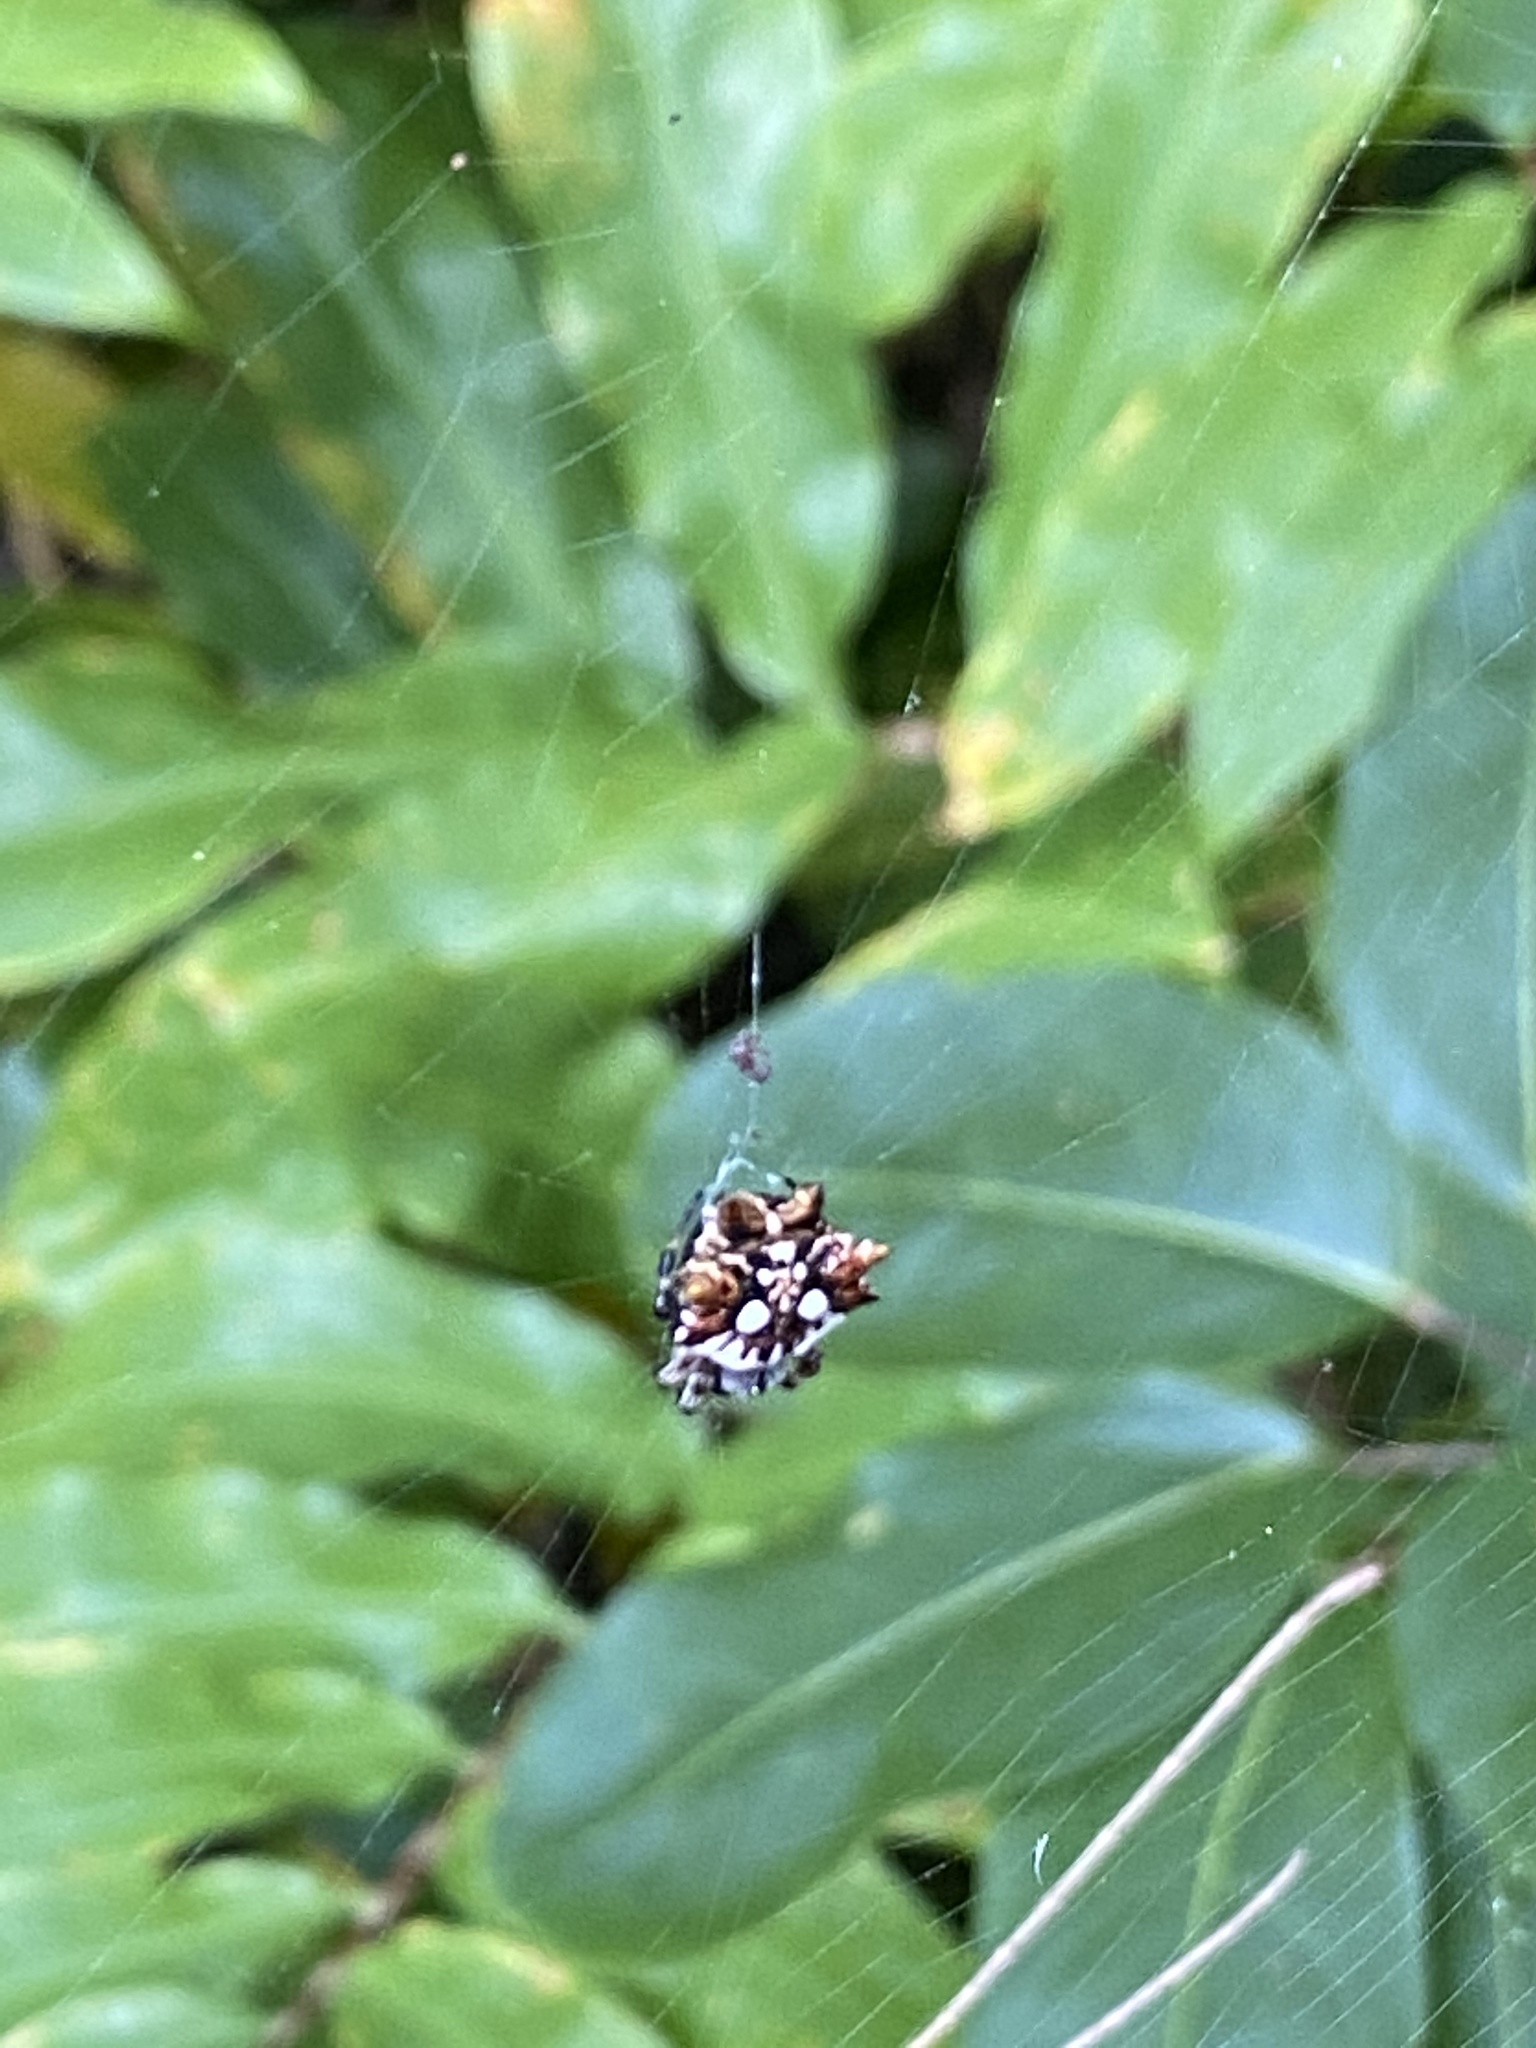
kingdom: Animalia
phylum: Arthropoda
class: Arachnida
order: Araneae
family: Araneidae
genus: Thelacantha
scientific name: Thelacantha brevispina
